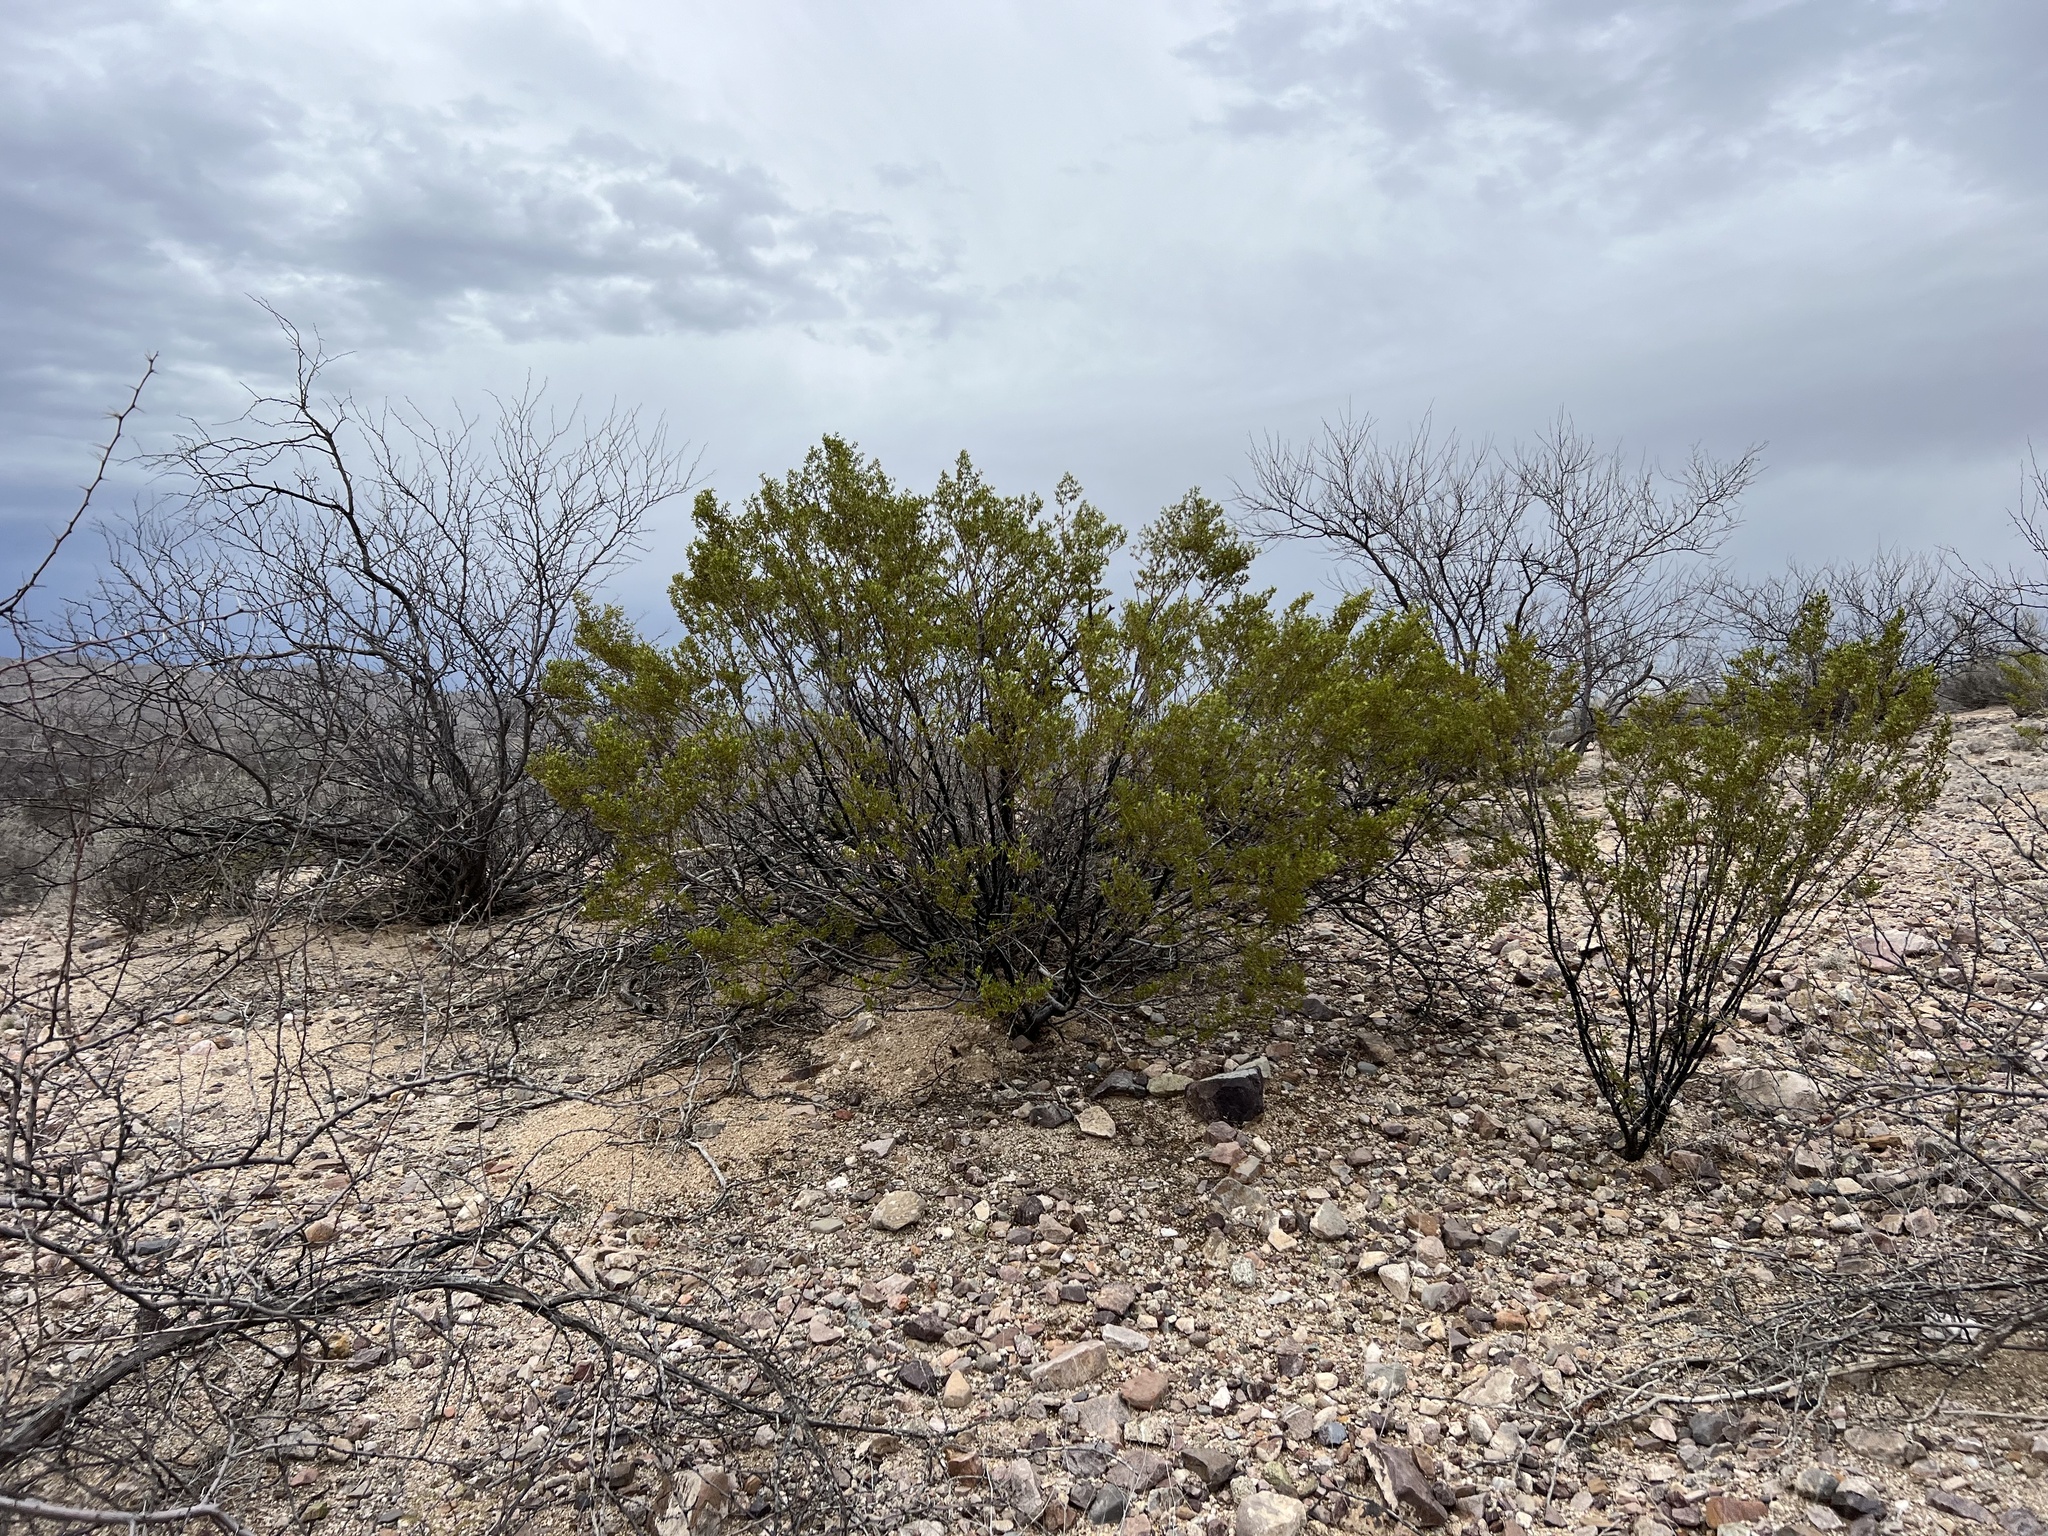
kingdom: Plantae
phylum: Tracheophyta
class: Magnoliopsida
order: Zygophyllales
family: Zygophyllaceae
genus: Larrea
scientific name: Larrea tridentata
